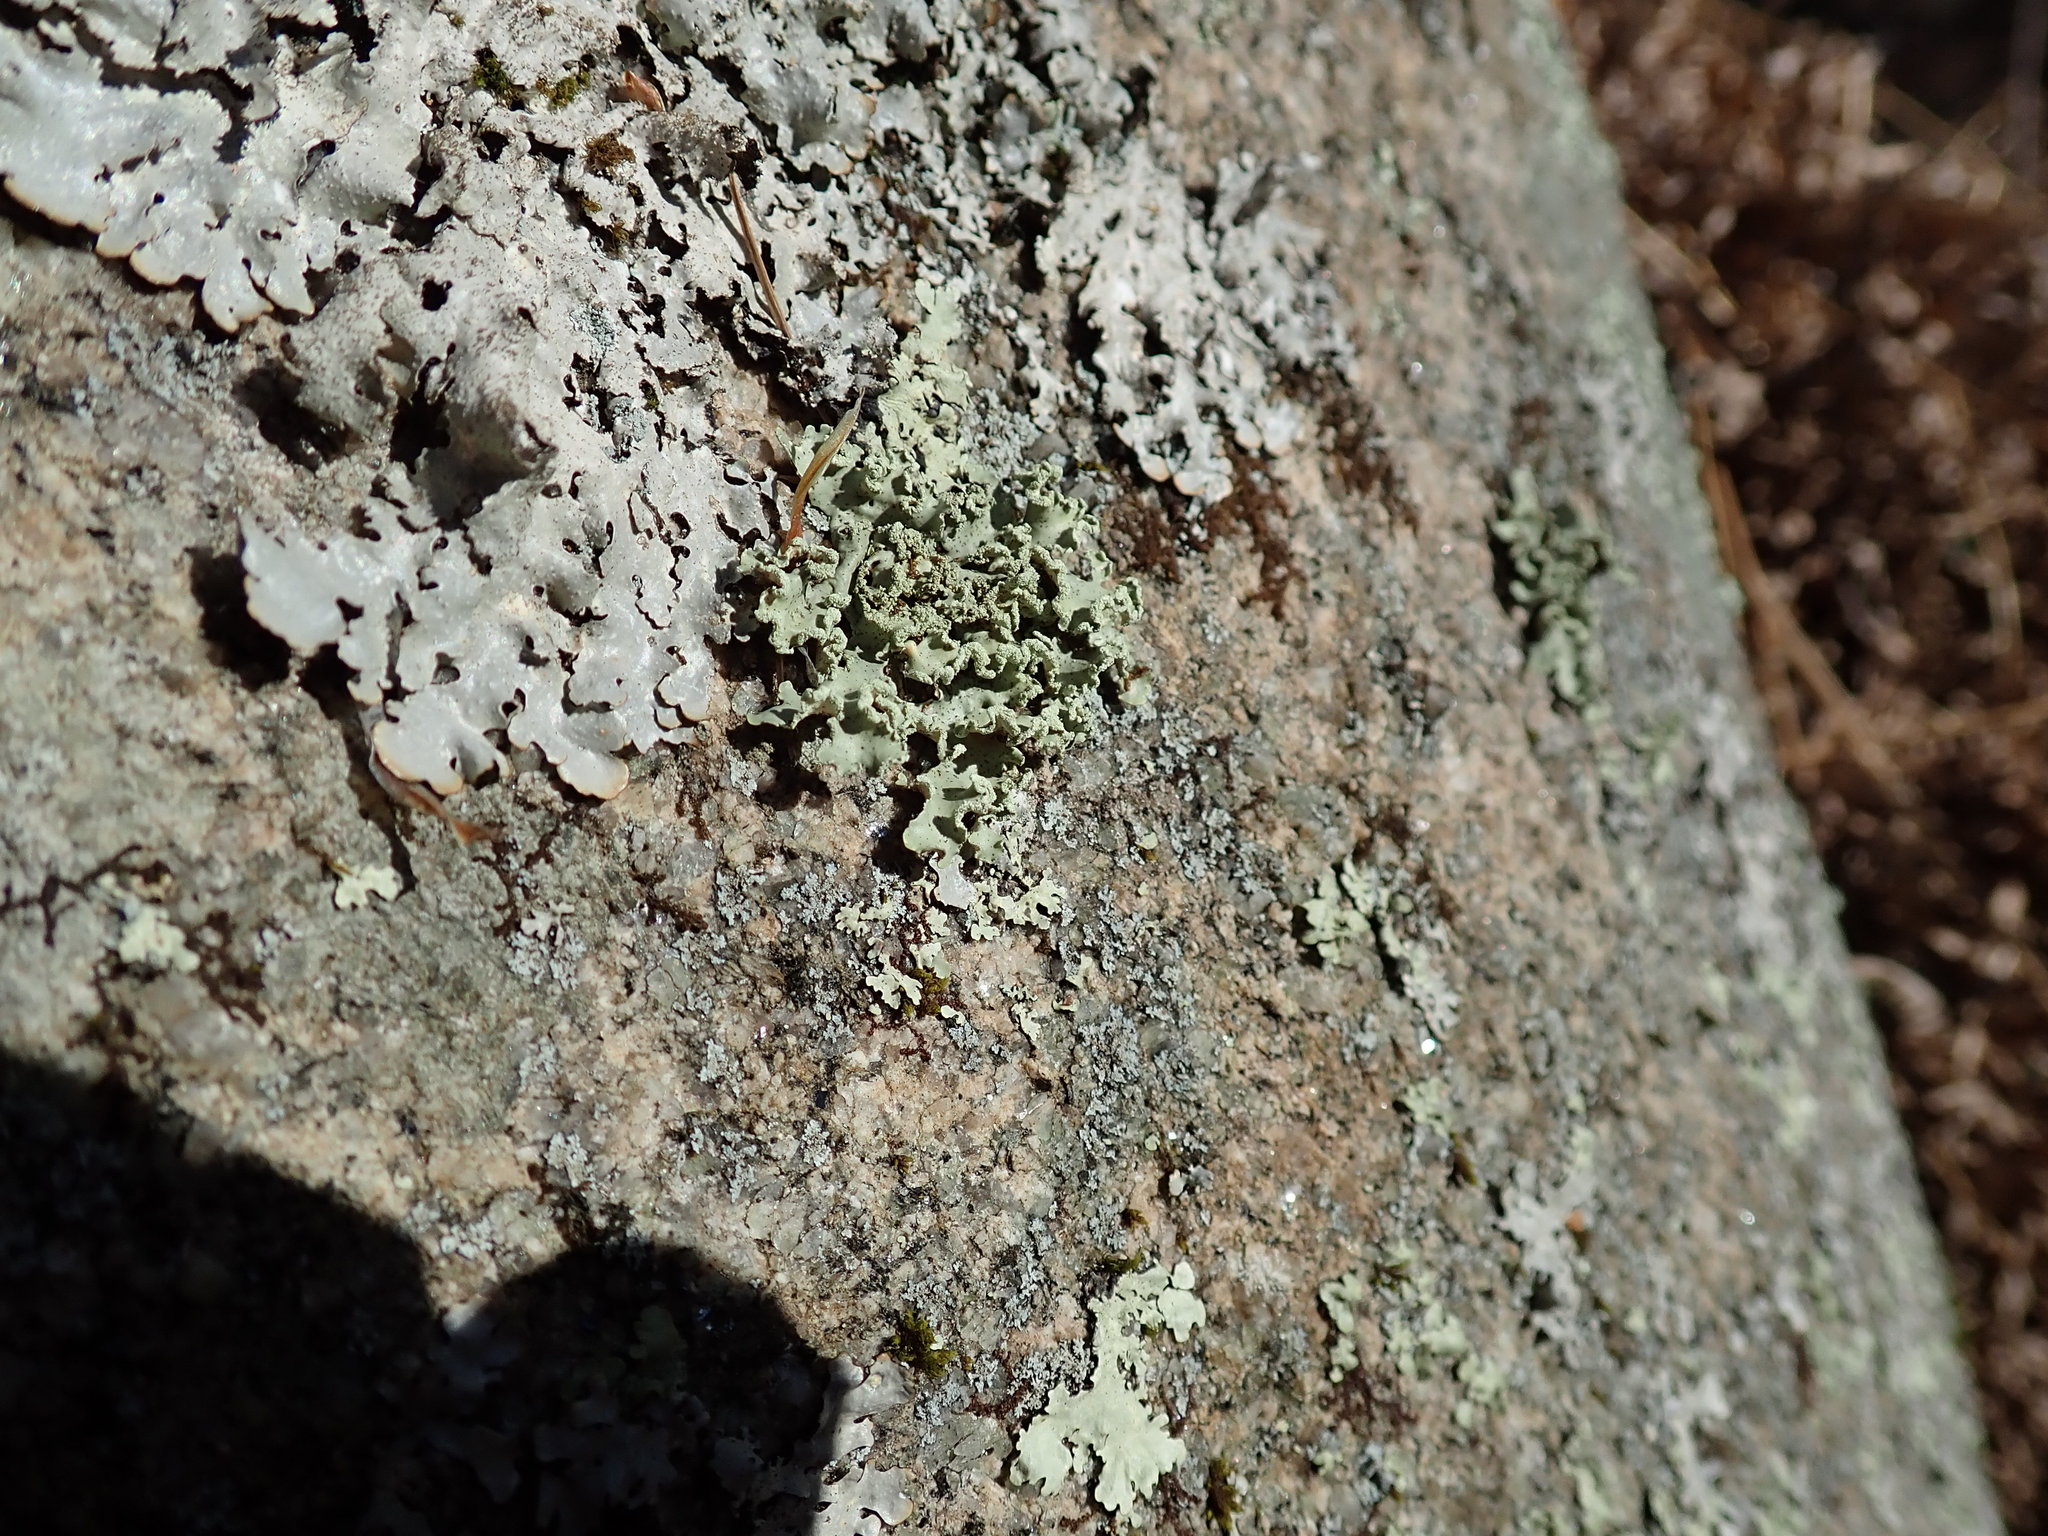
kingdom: Fungi
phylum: Ascomycota
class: Lecanoromycetes
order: Lecanorales
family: Parmeliaceae
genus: Usnocetraria
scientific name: Usnocetraria oakesiana
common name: Yellow ribbon lichen
